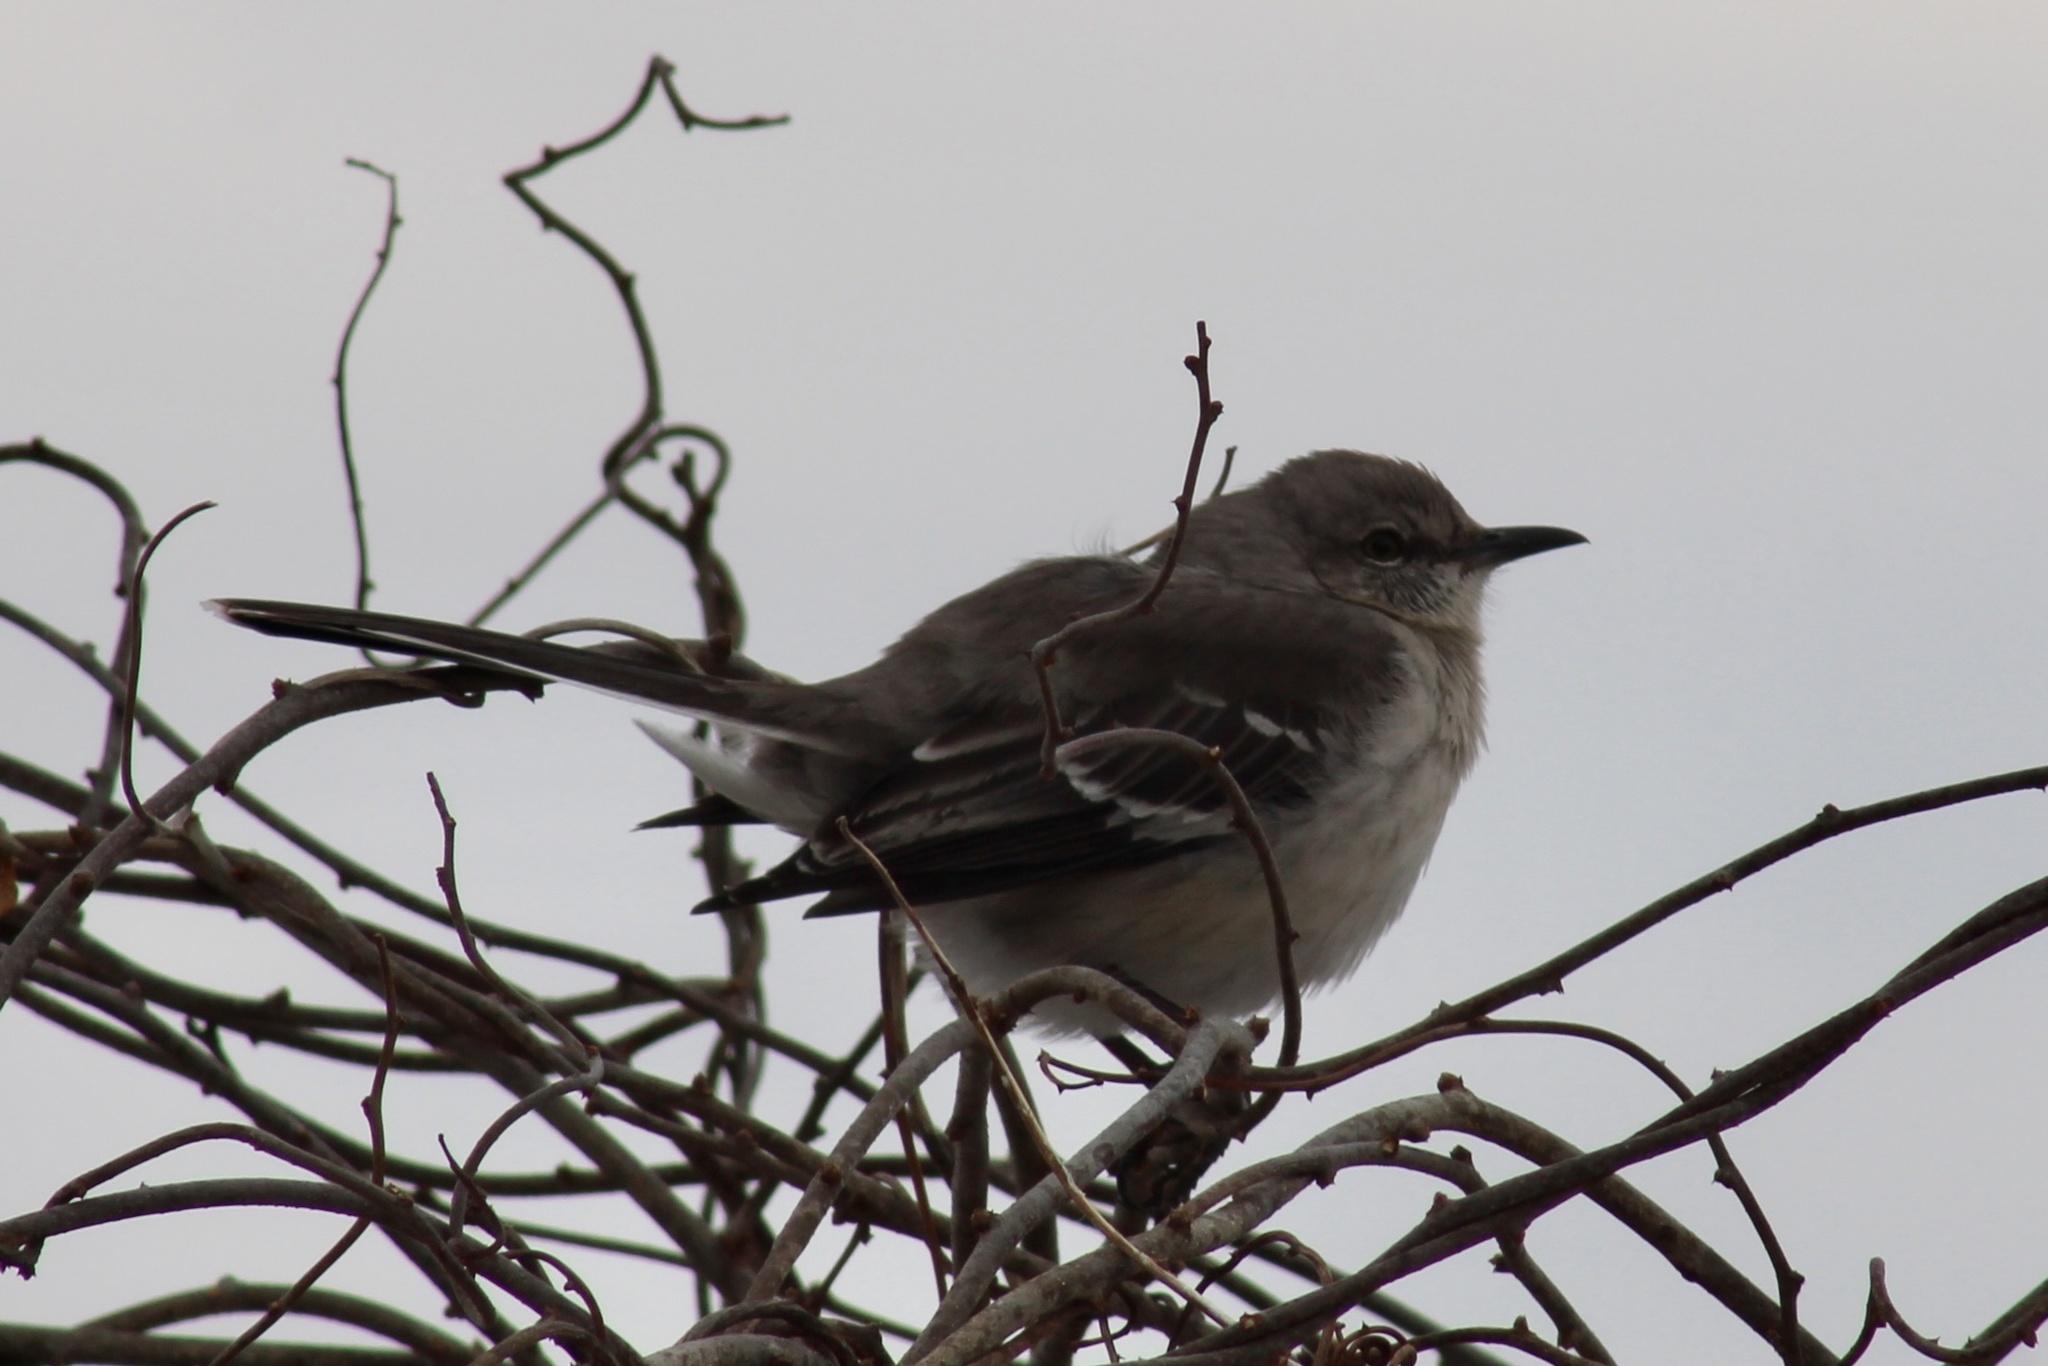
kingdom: Animalia
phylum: Chordata
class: Aves
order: Passeriformes
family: Mimidae
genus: Mimus
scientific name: Mimus polyglottos
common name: Northern mockingbird
